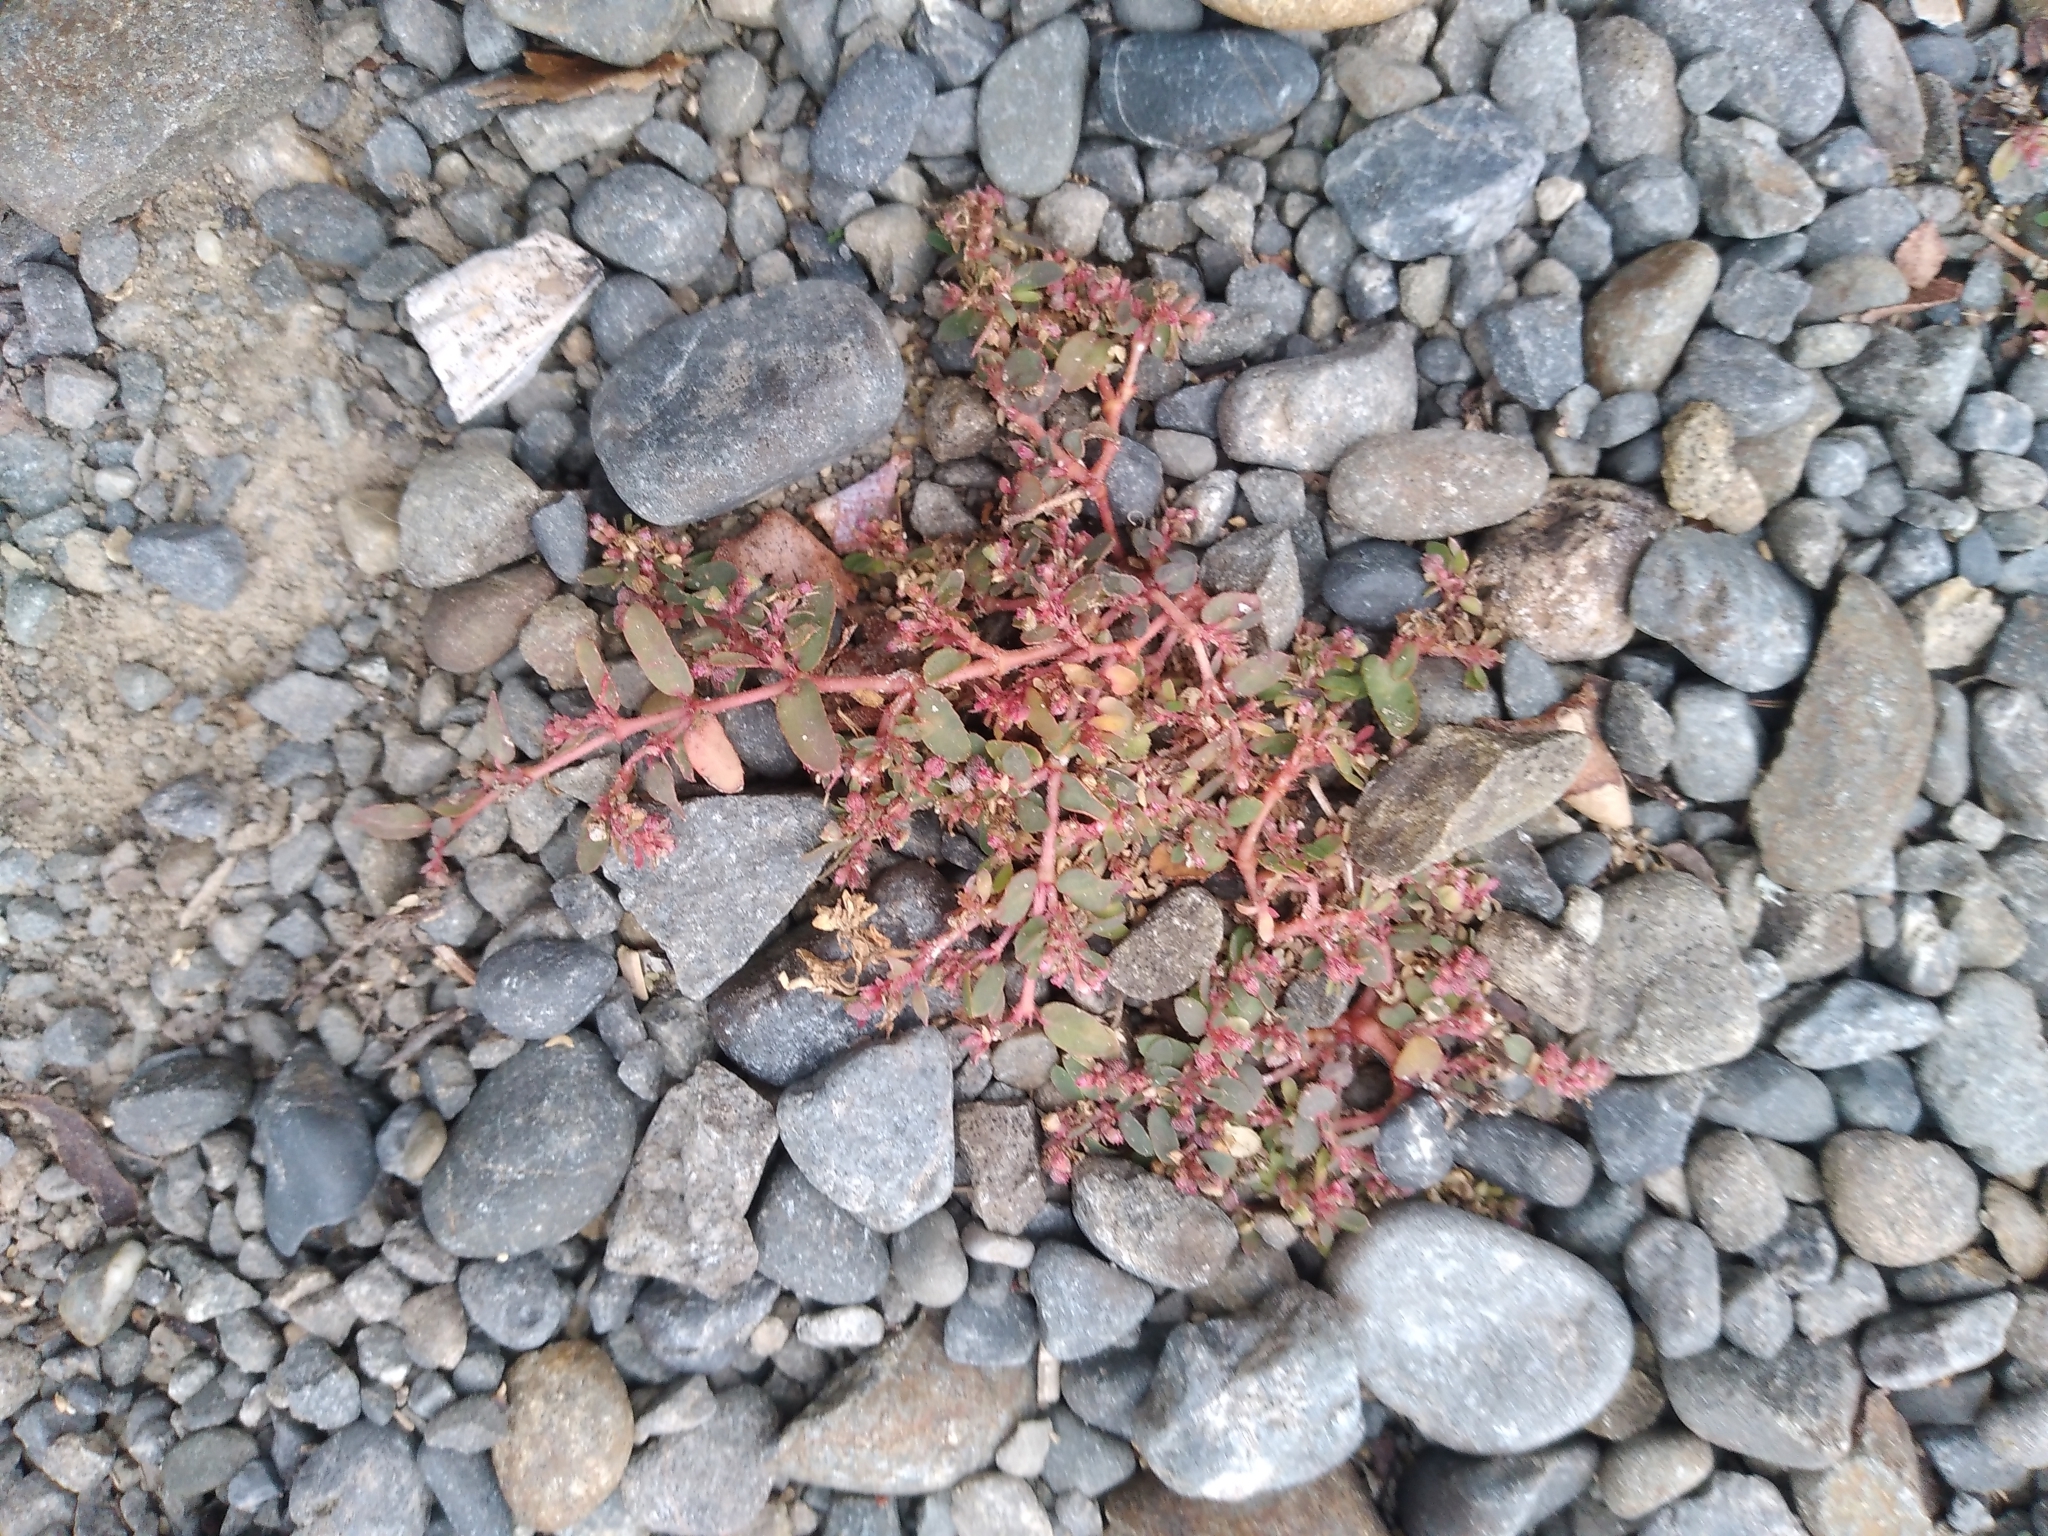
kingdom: Plantae
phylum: Tracheophyta
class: Magnoliopsida
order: Malpighiales
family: Euphorbiaceae
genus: Euphorbia
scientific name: Euphorbia maculata
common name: Spotted spurge
